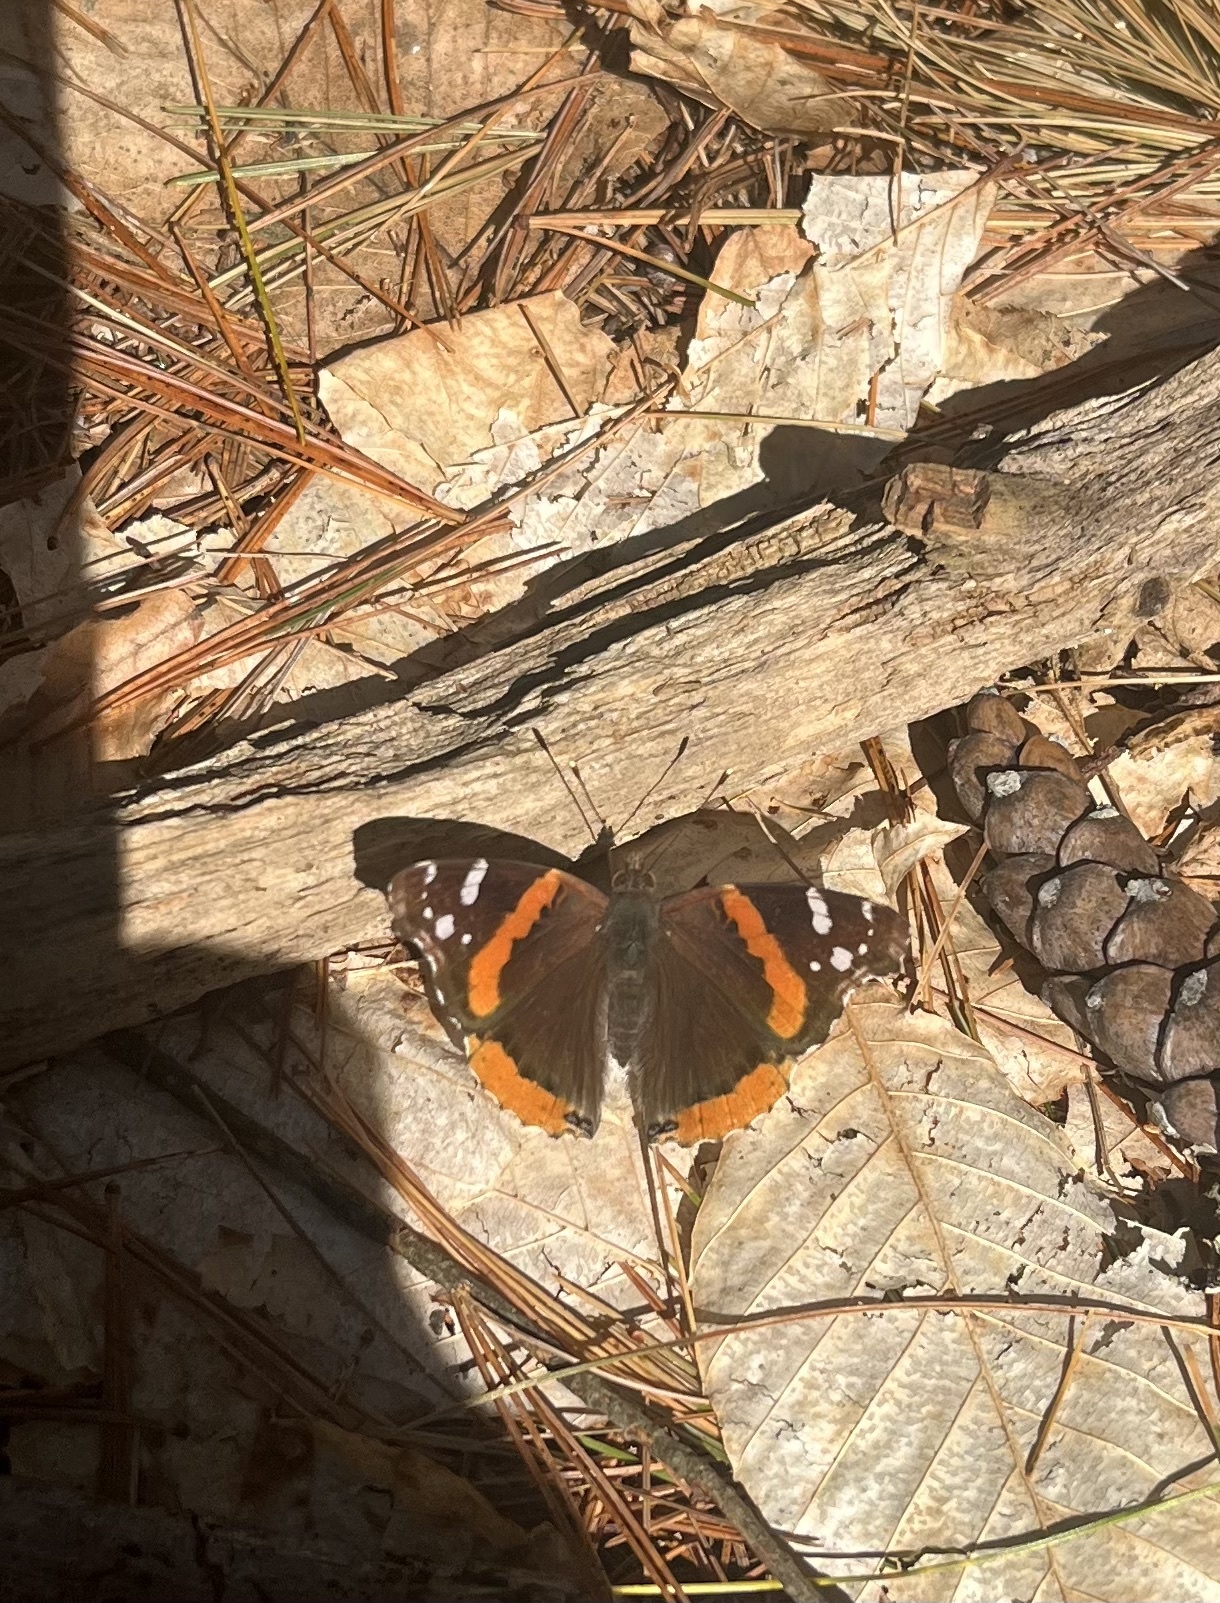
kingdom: Animalia
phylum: Arthropoda
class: Insecta
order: Lepidoptera
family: Nymphalidae
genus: Vanessa
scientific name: Vanessa atalanta
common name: Red admiral
